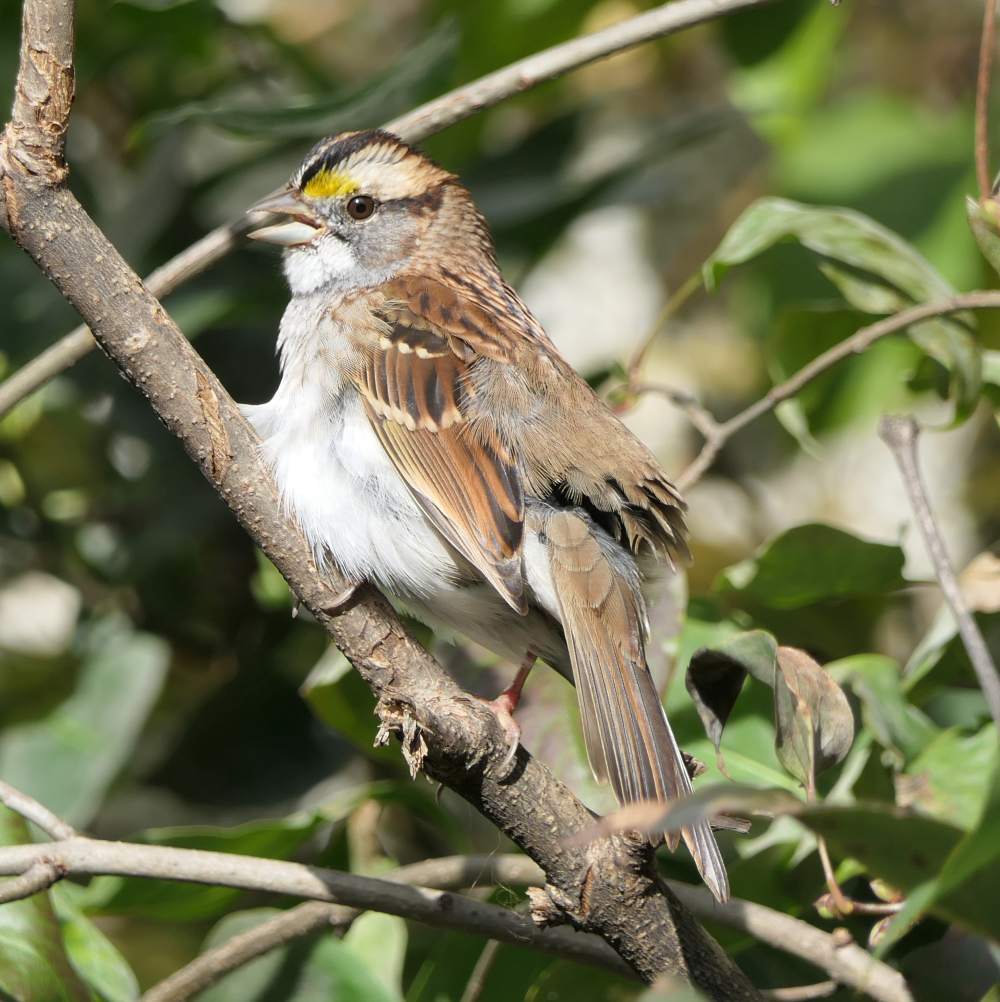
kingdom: Animalia
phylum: Chordata
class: Aves
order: Passeriformes
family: Passerellidae
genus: Zonotrichia
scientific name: Zonotrichia albicollis
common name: White-throated sparrow
